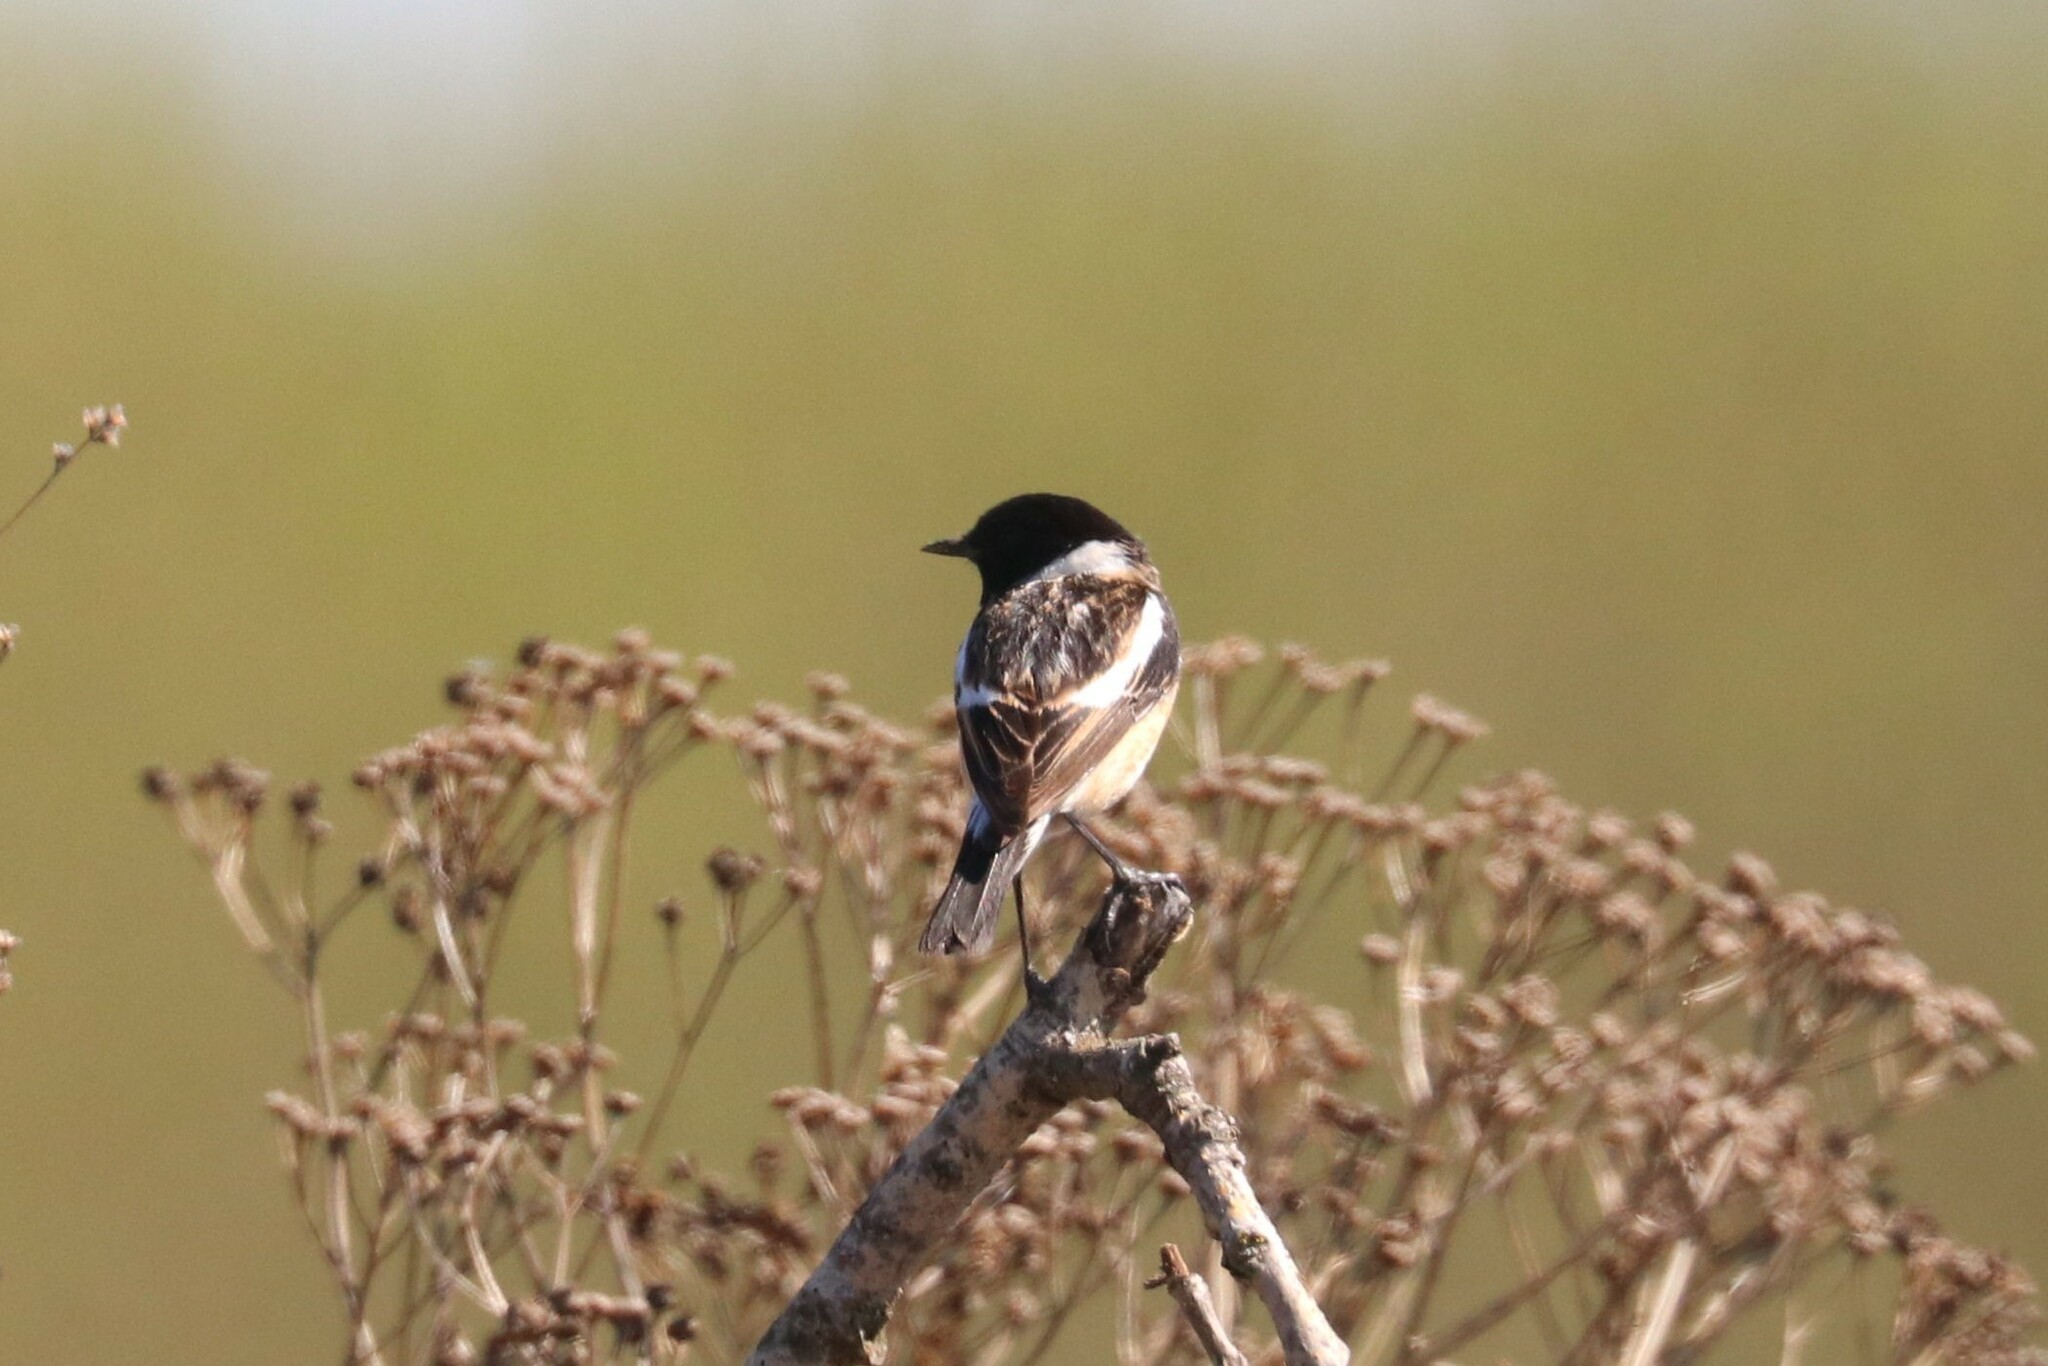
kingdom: Animalia
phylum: Chordata
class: Aves
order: Passeriformes
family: Muscicapidae
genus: Saxicola
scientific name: Saxicola maurus
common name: Siberian stonechat
